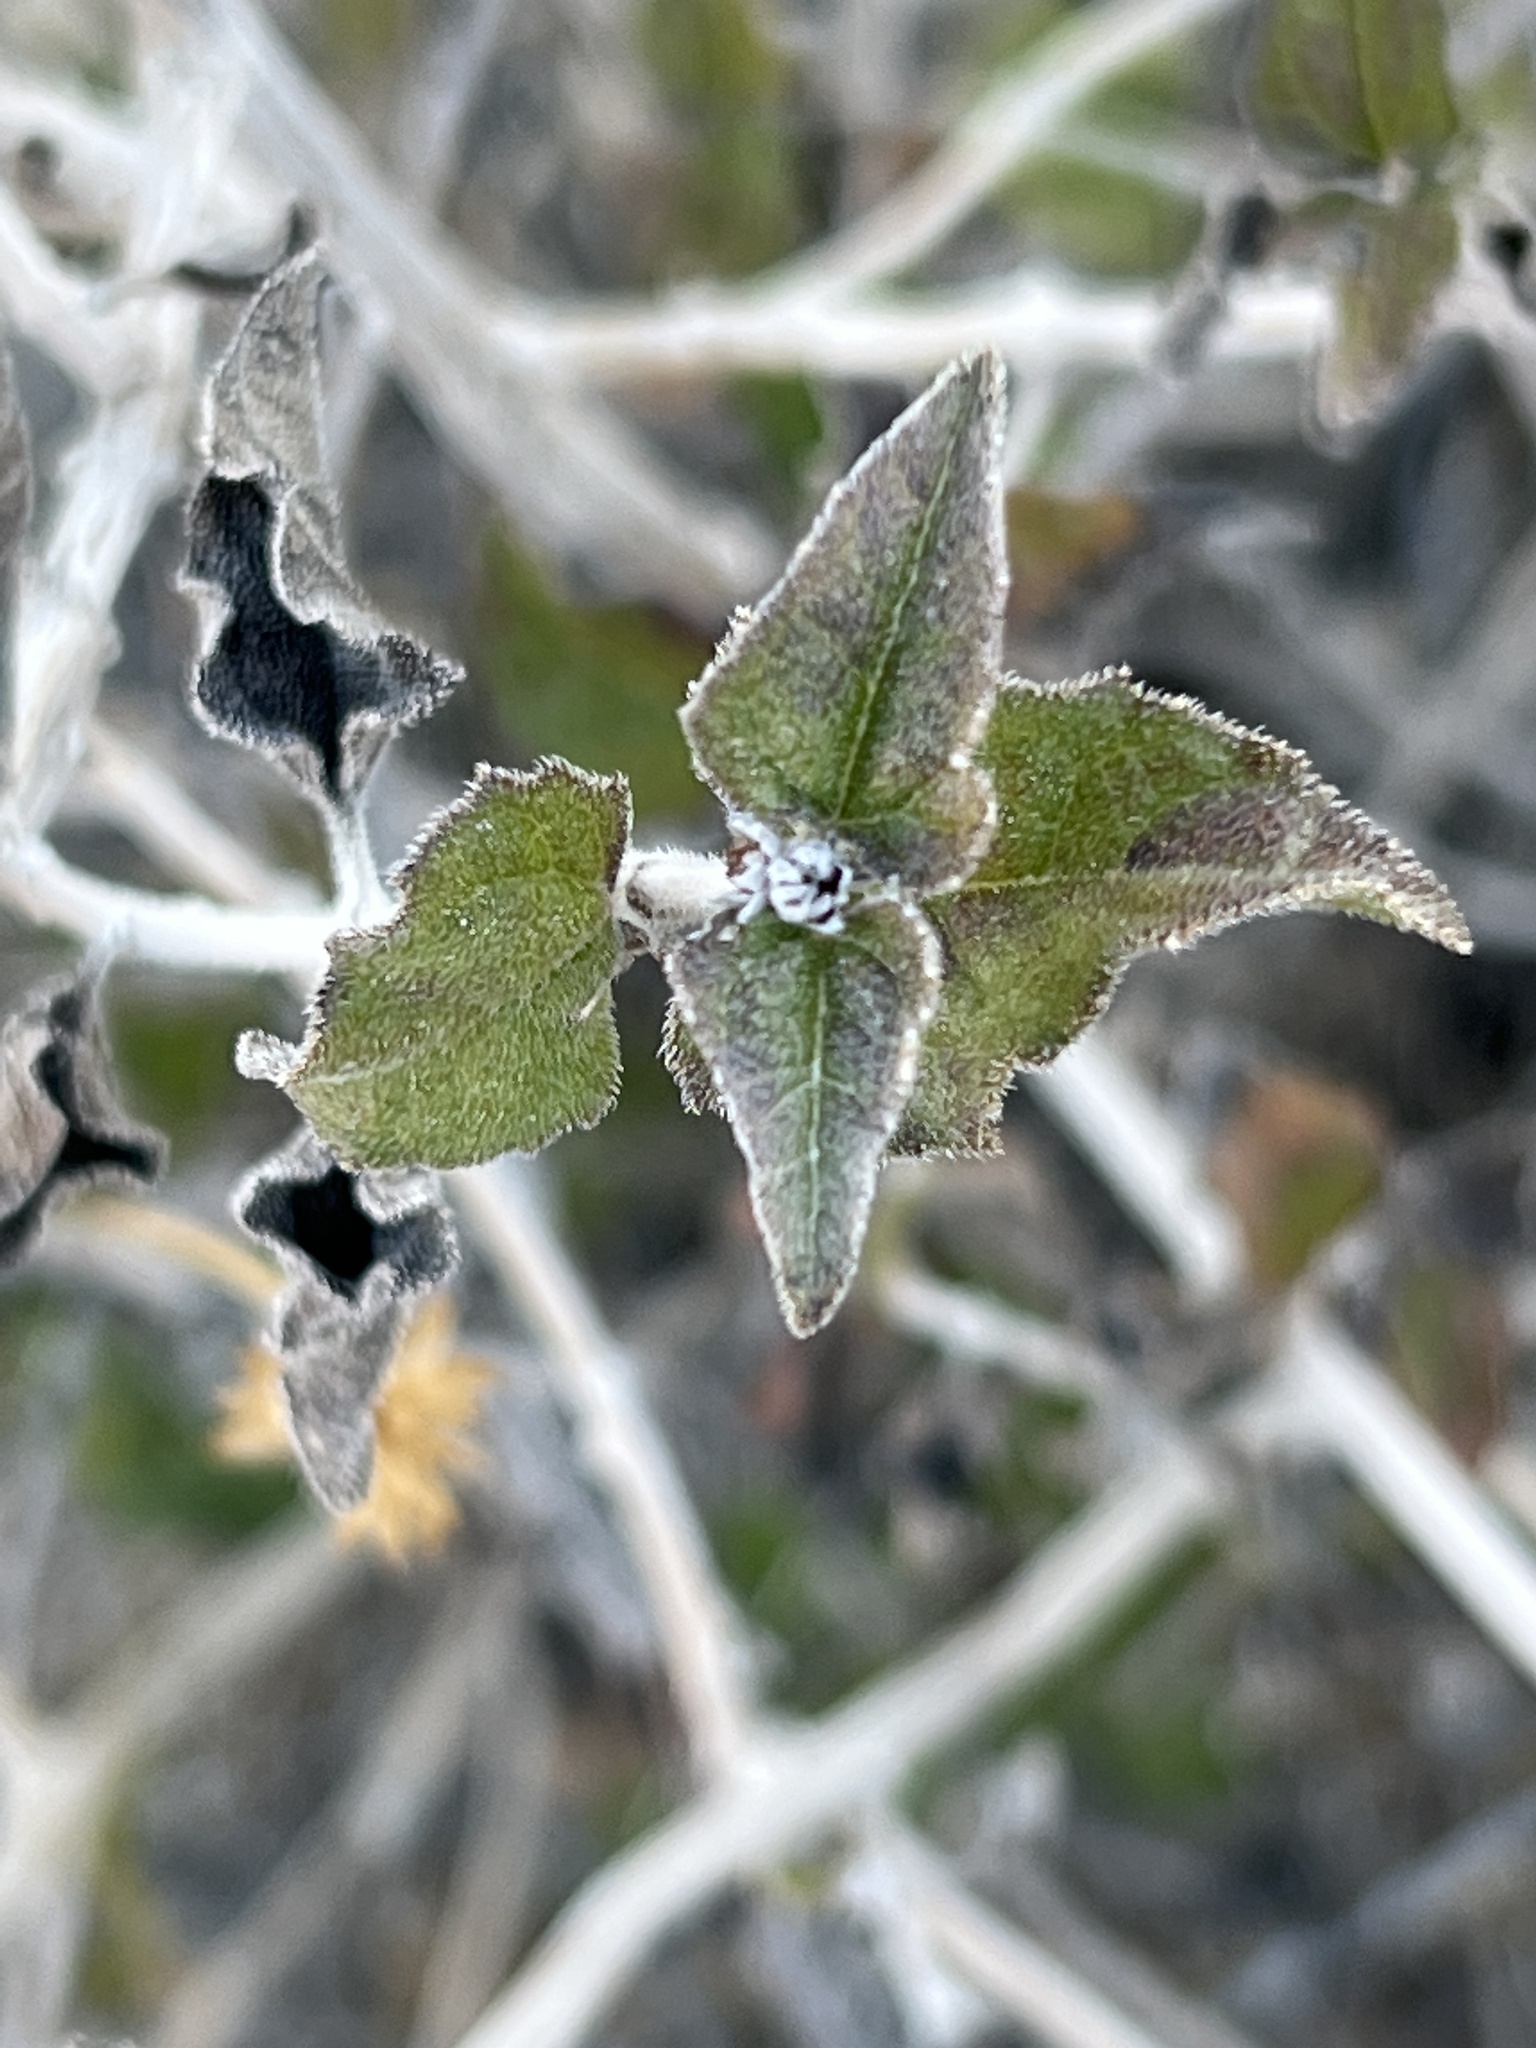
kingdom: Plantae
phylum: Tracheophyta
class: Magnoliopsida
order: Asterales
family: Asteraceae
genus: Bahiopsis
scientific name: Bahiopsis parishii
